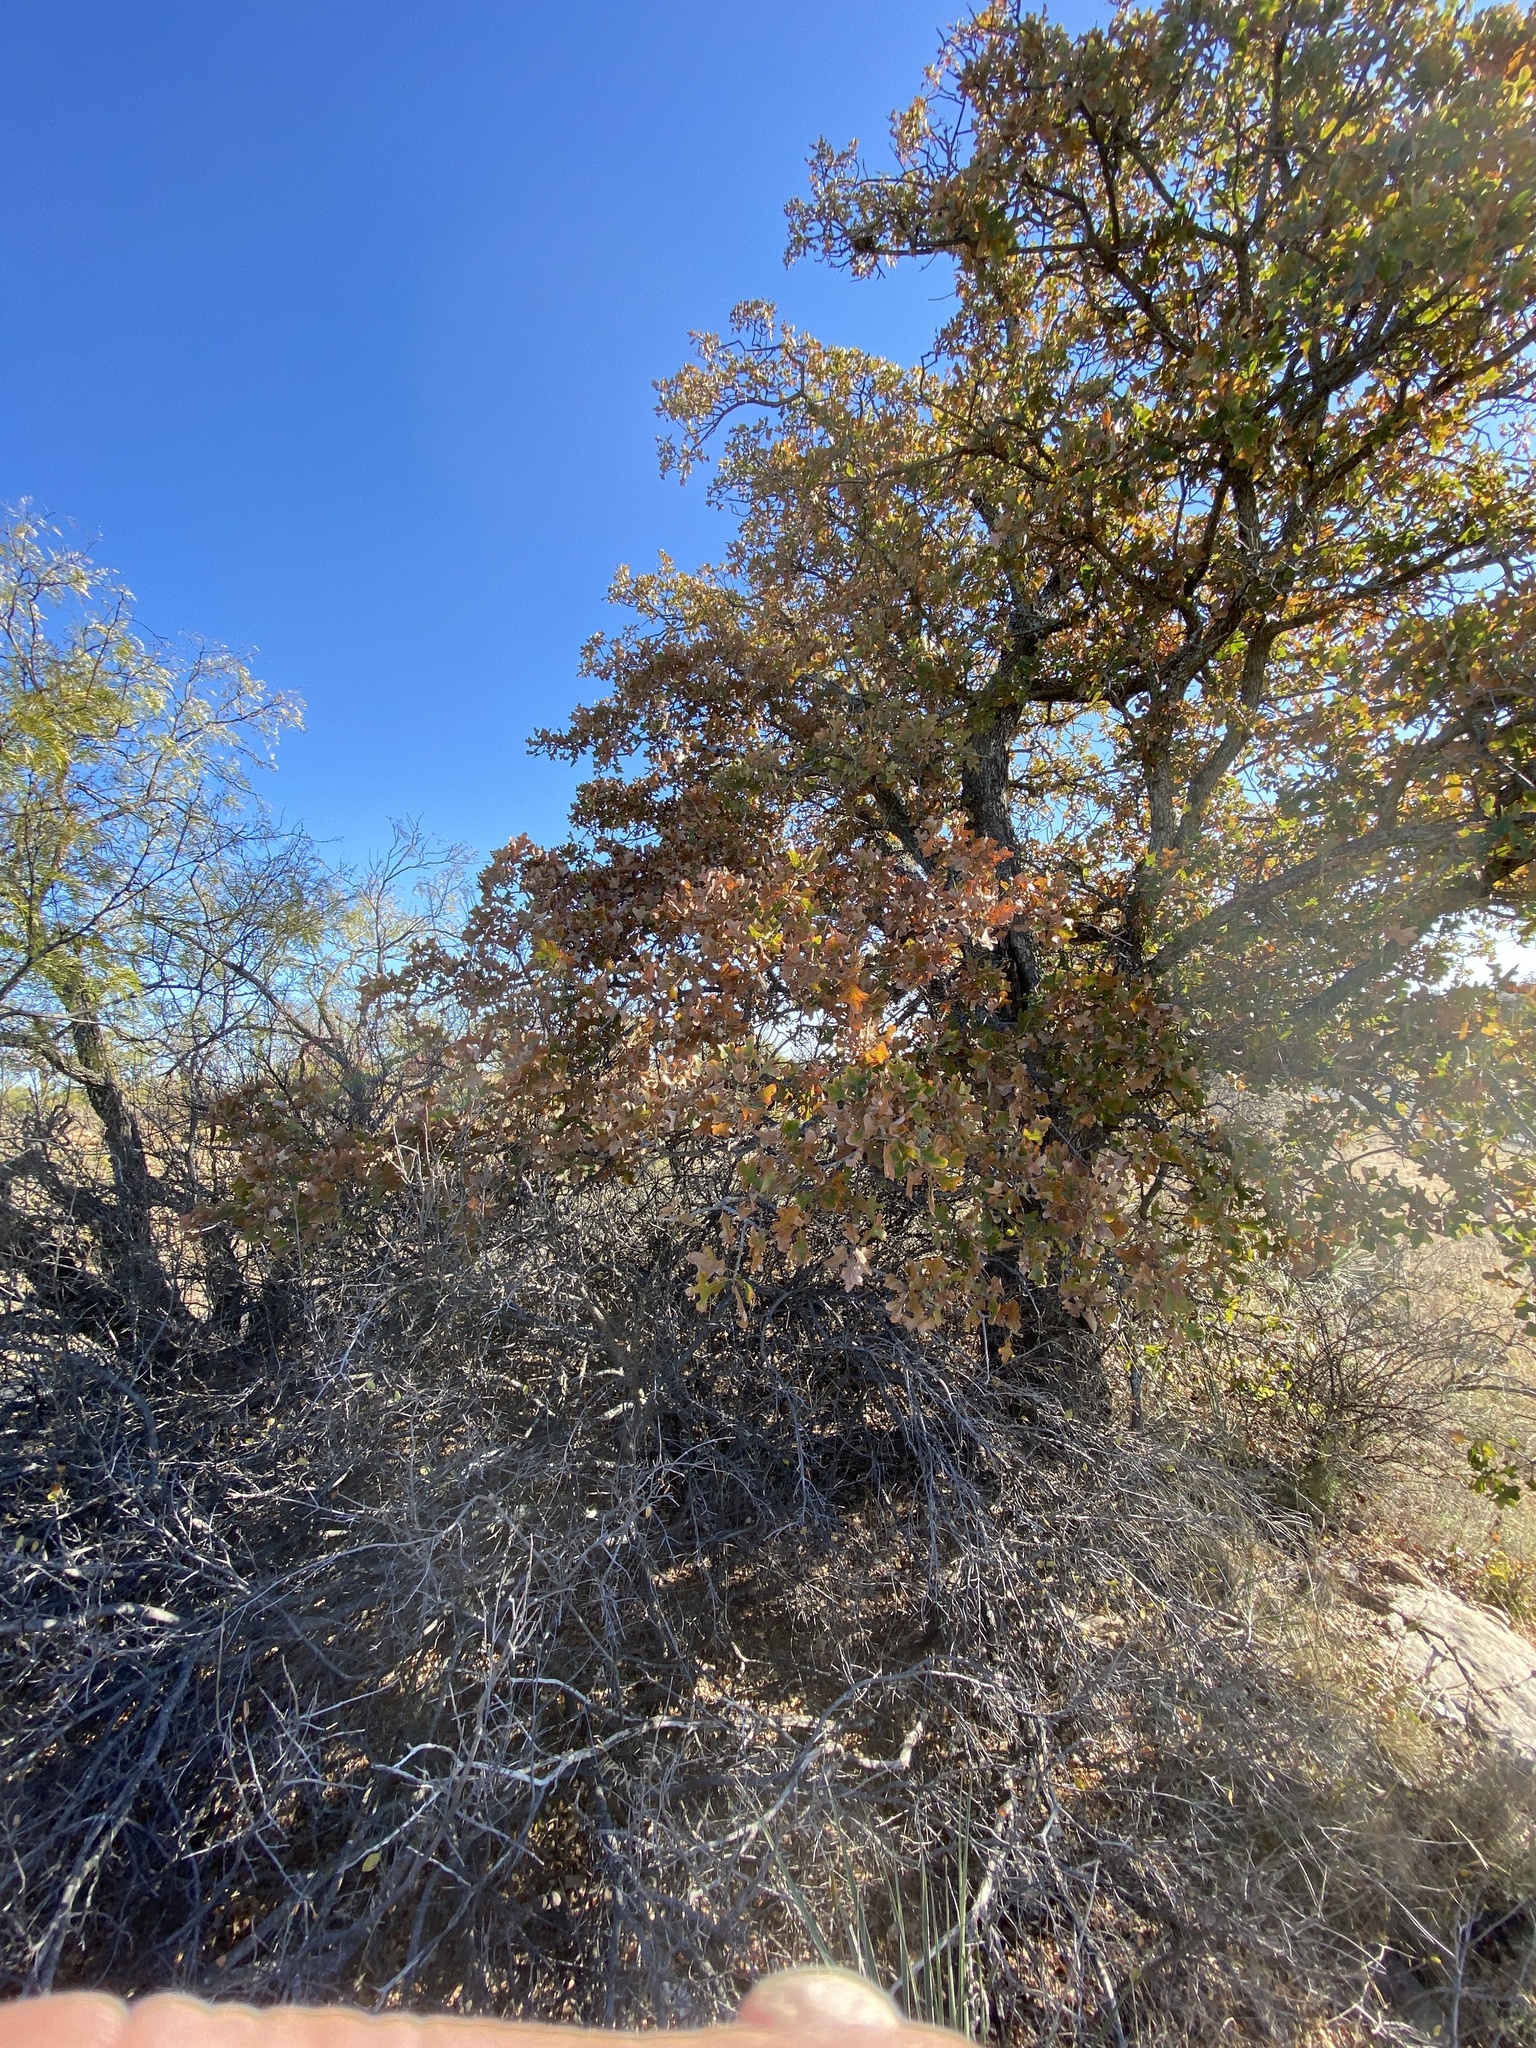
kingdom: Plantae
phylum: Tracheophyta
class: Magnoliopsida
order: Fagales
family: Fagaceae
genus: Quercus
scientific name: Quercus stellata
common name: Post oak
